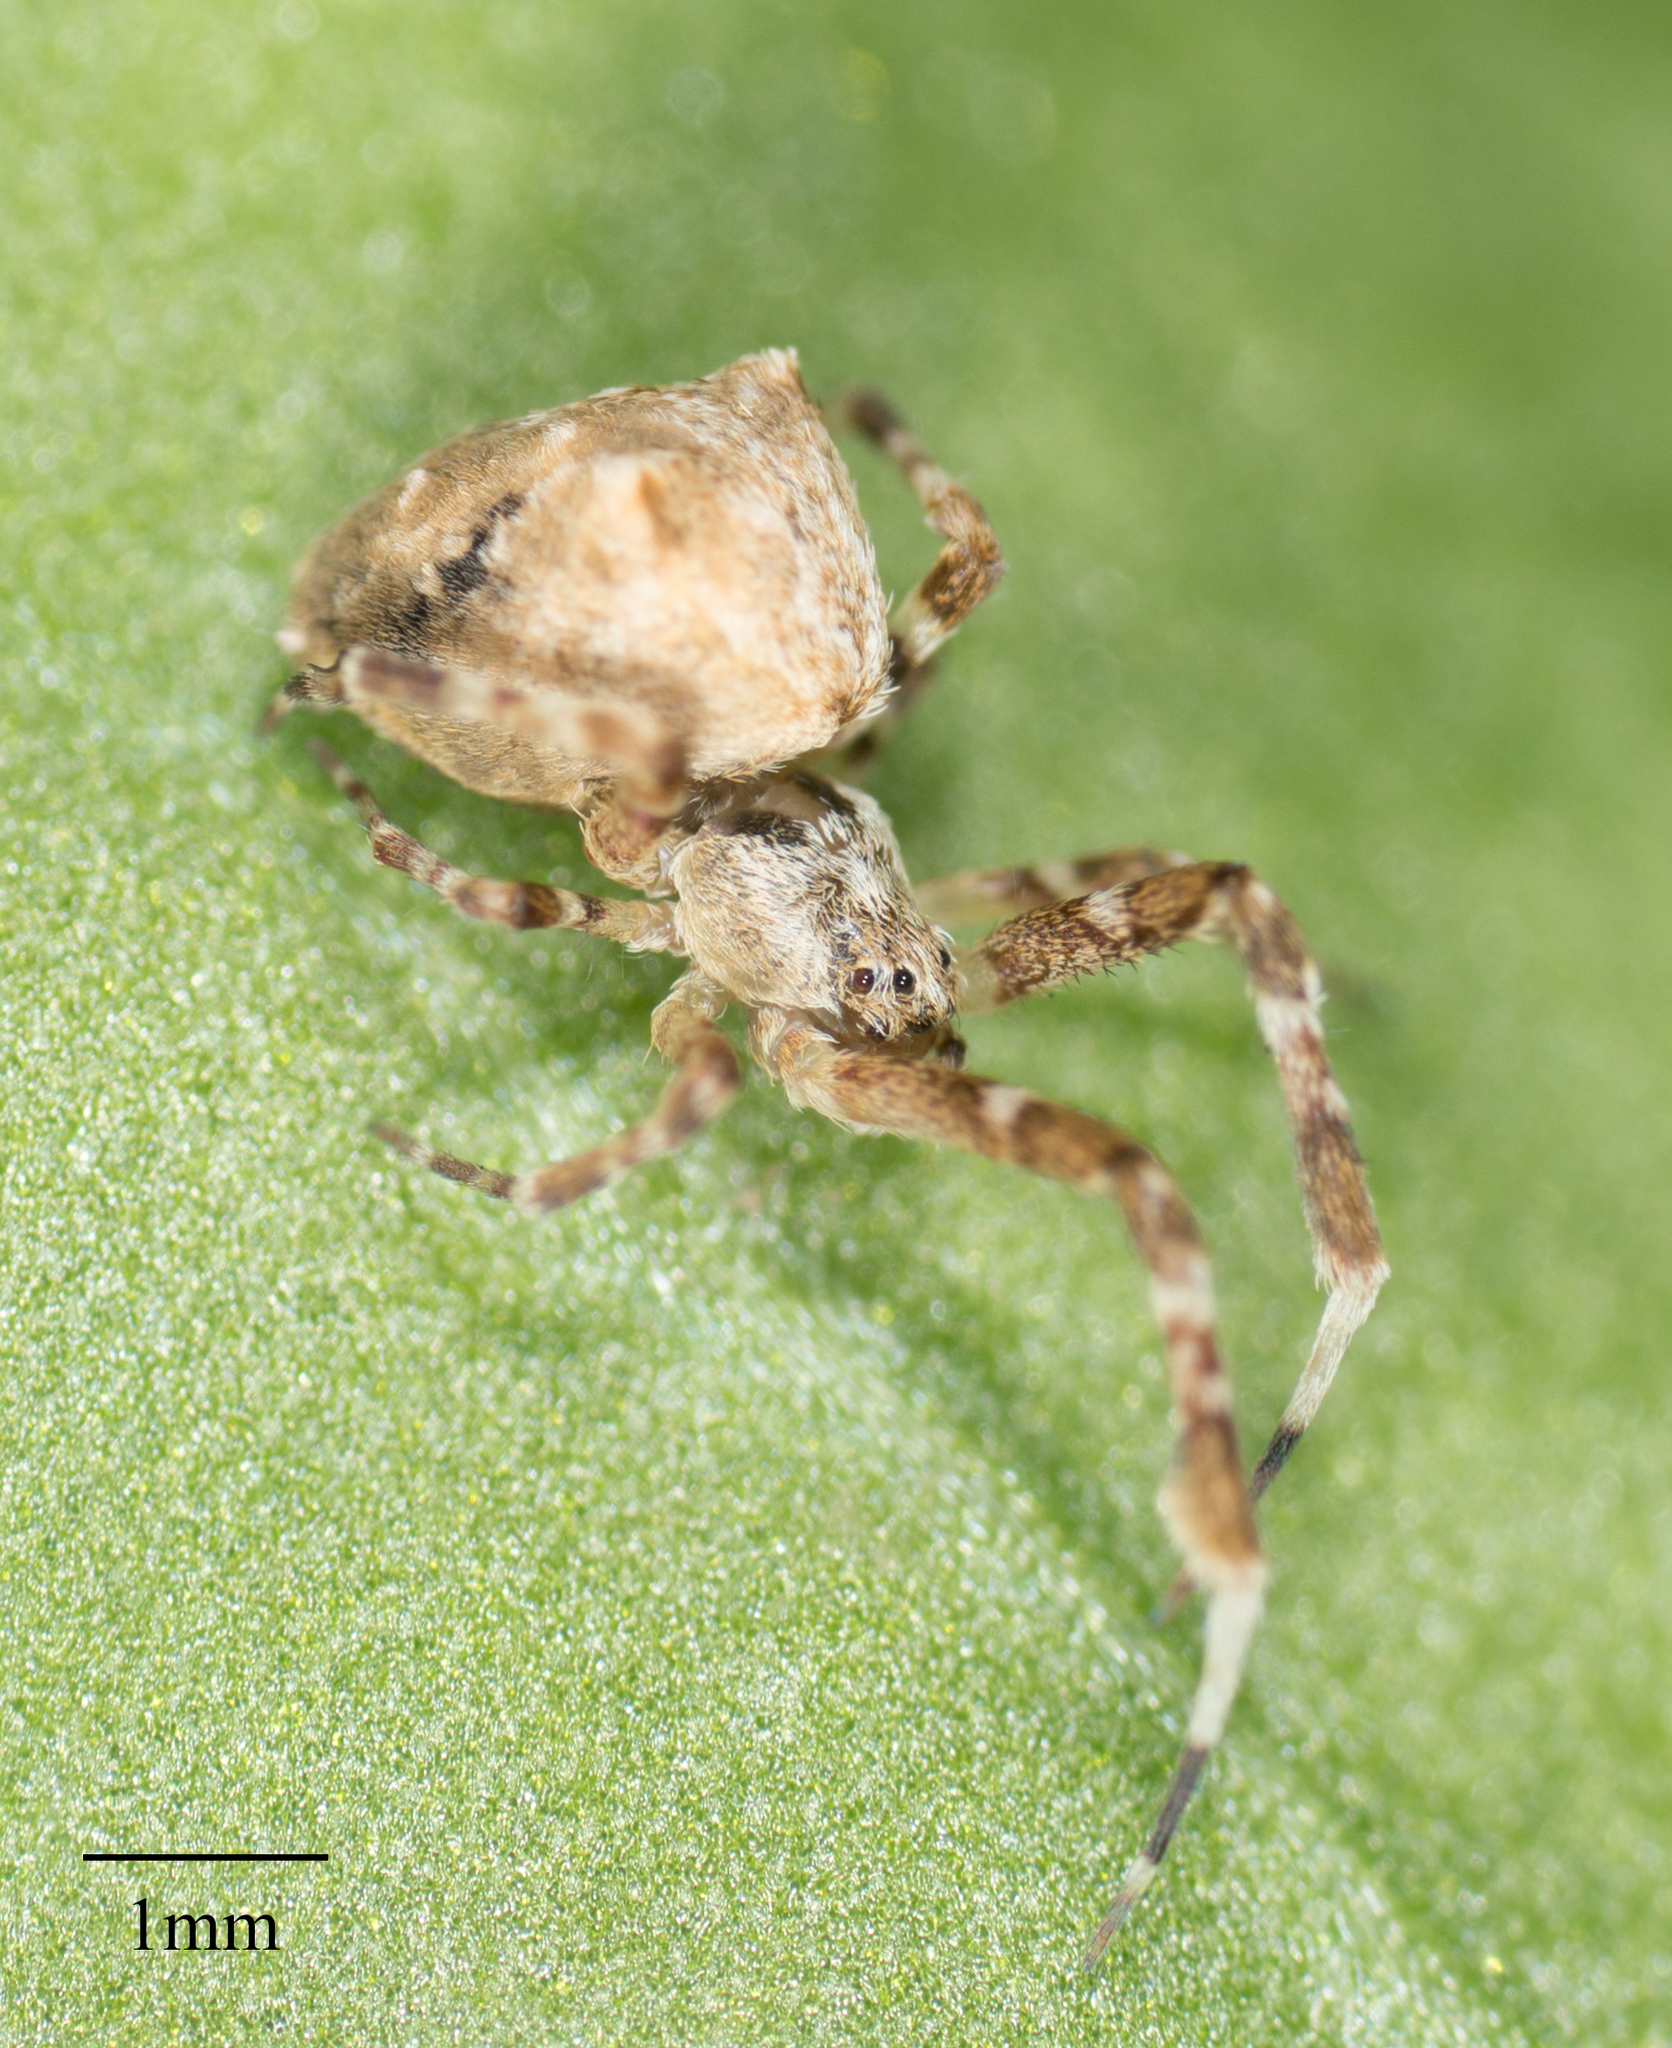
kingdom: Animalia
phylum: Arthropoda
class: Arachnida
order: Araneae
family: Uloboridae
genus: Uloborus
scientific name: Uloborus diversus
